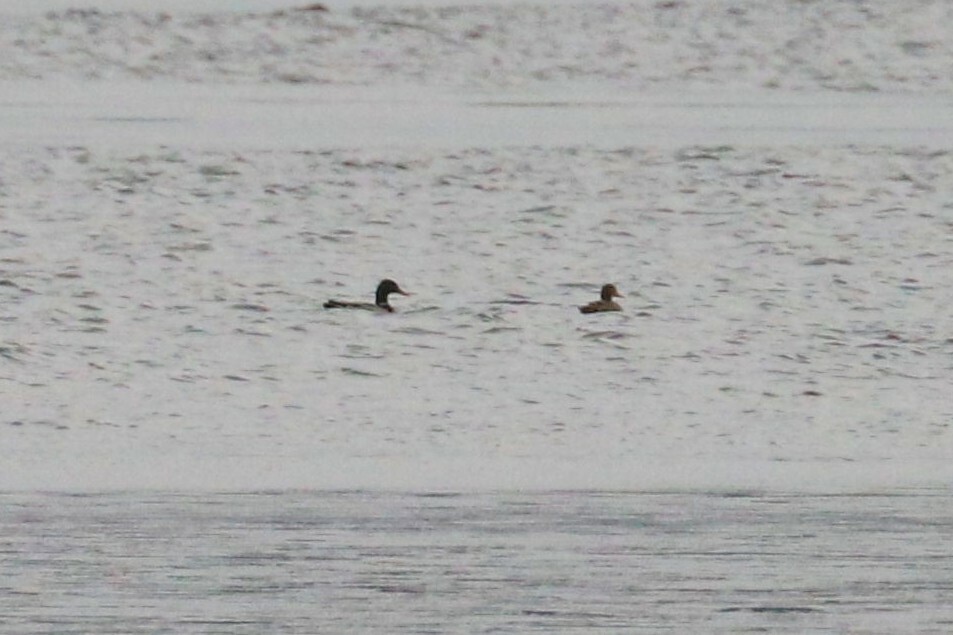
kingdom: Animalia
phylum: Chordata
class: Aves
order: Anseriformes
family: Anatidae
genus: Anas
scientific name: Anas platyrhynchos
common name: Mallard
